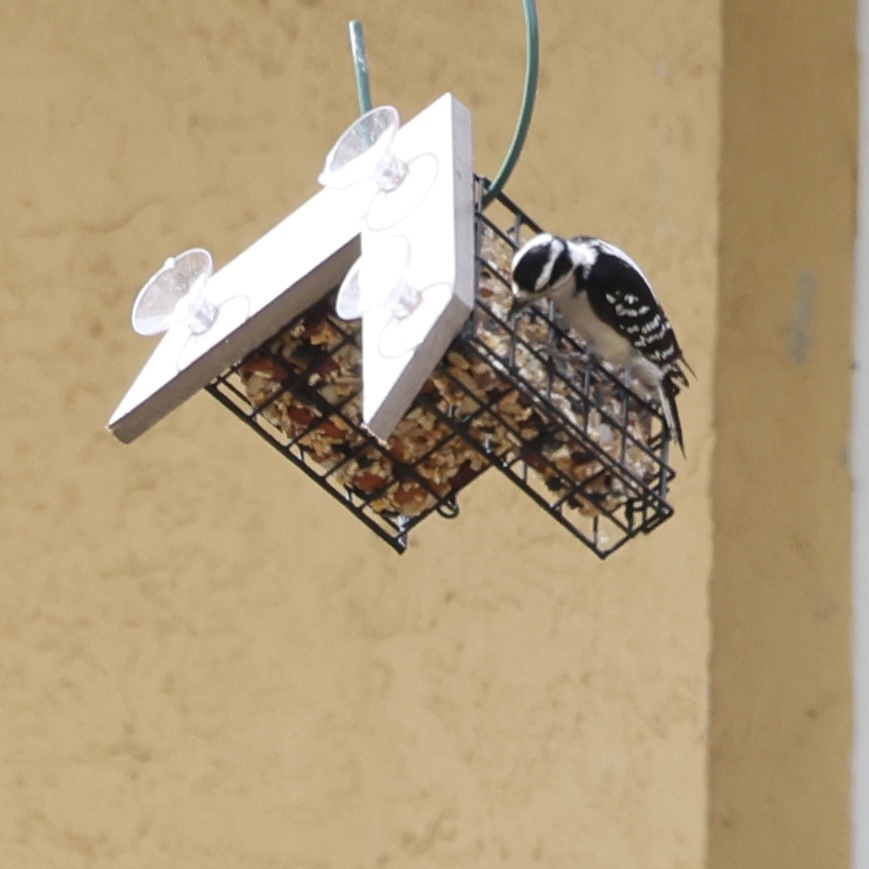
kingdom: Animalia
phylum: Chordata
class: Aves
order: Piciformes
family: Picidae
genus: Dryobates
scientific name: Dryobates pubescens
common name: Downy woodpecker
